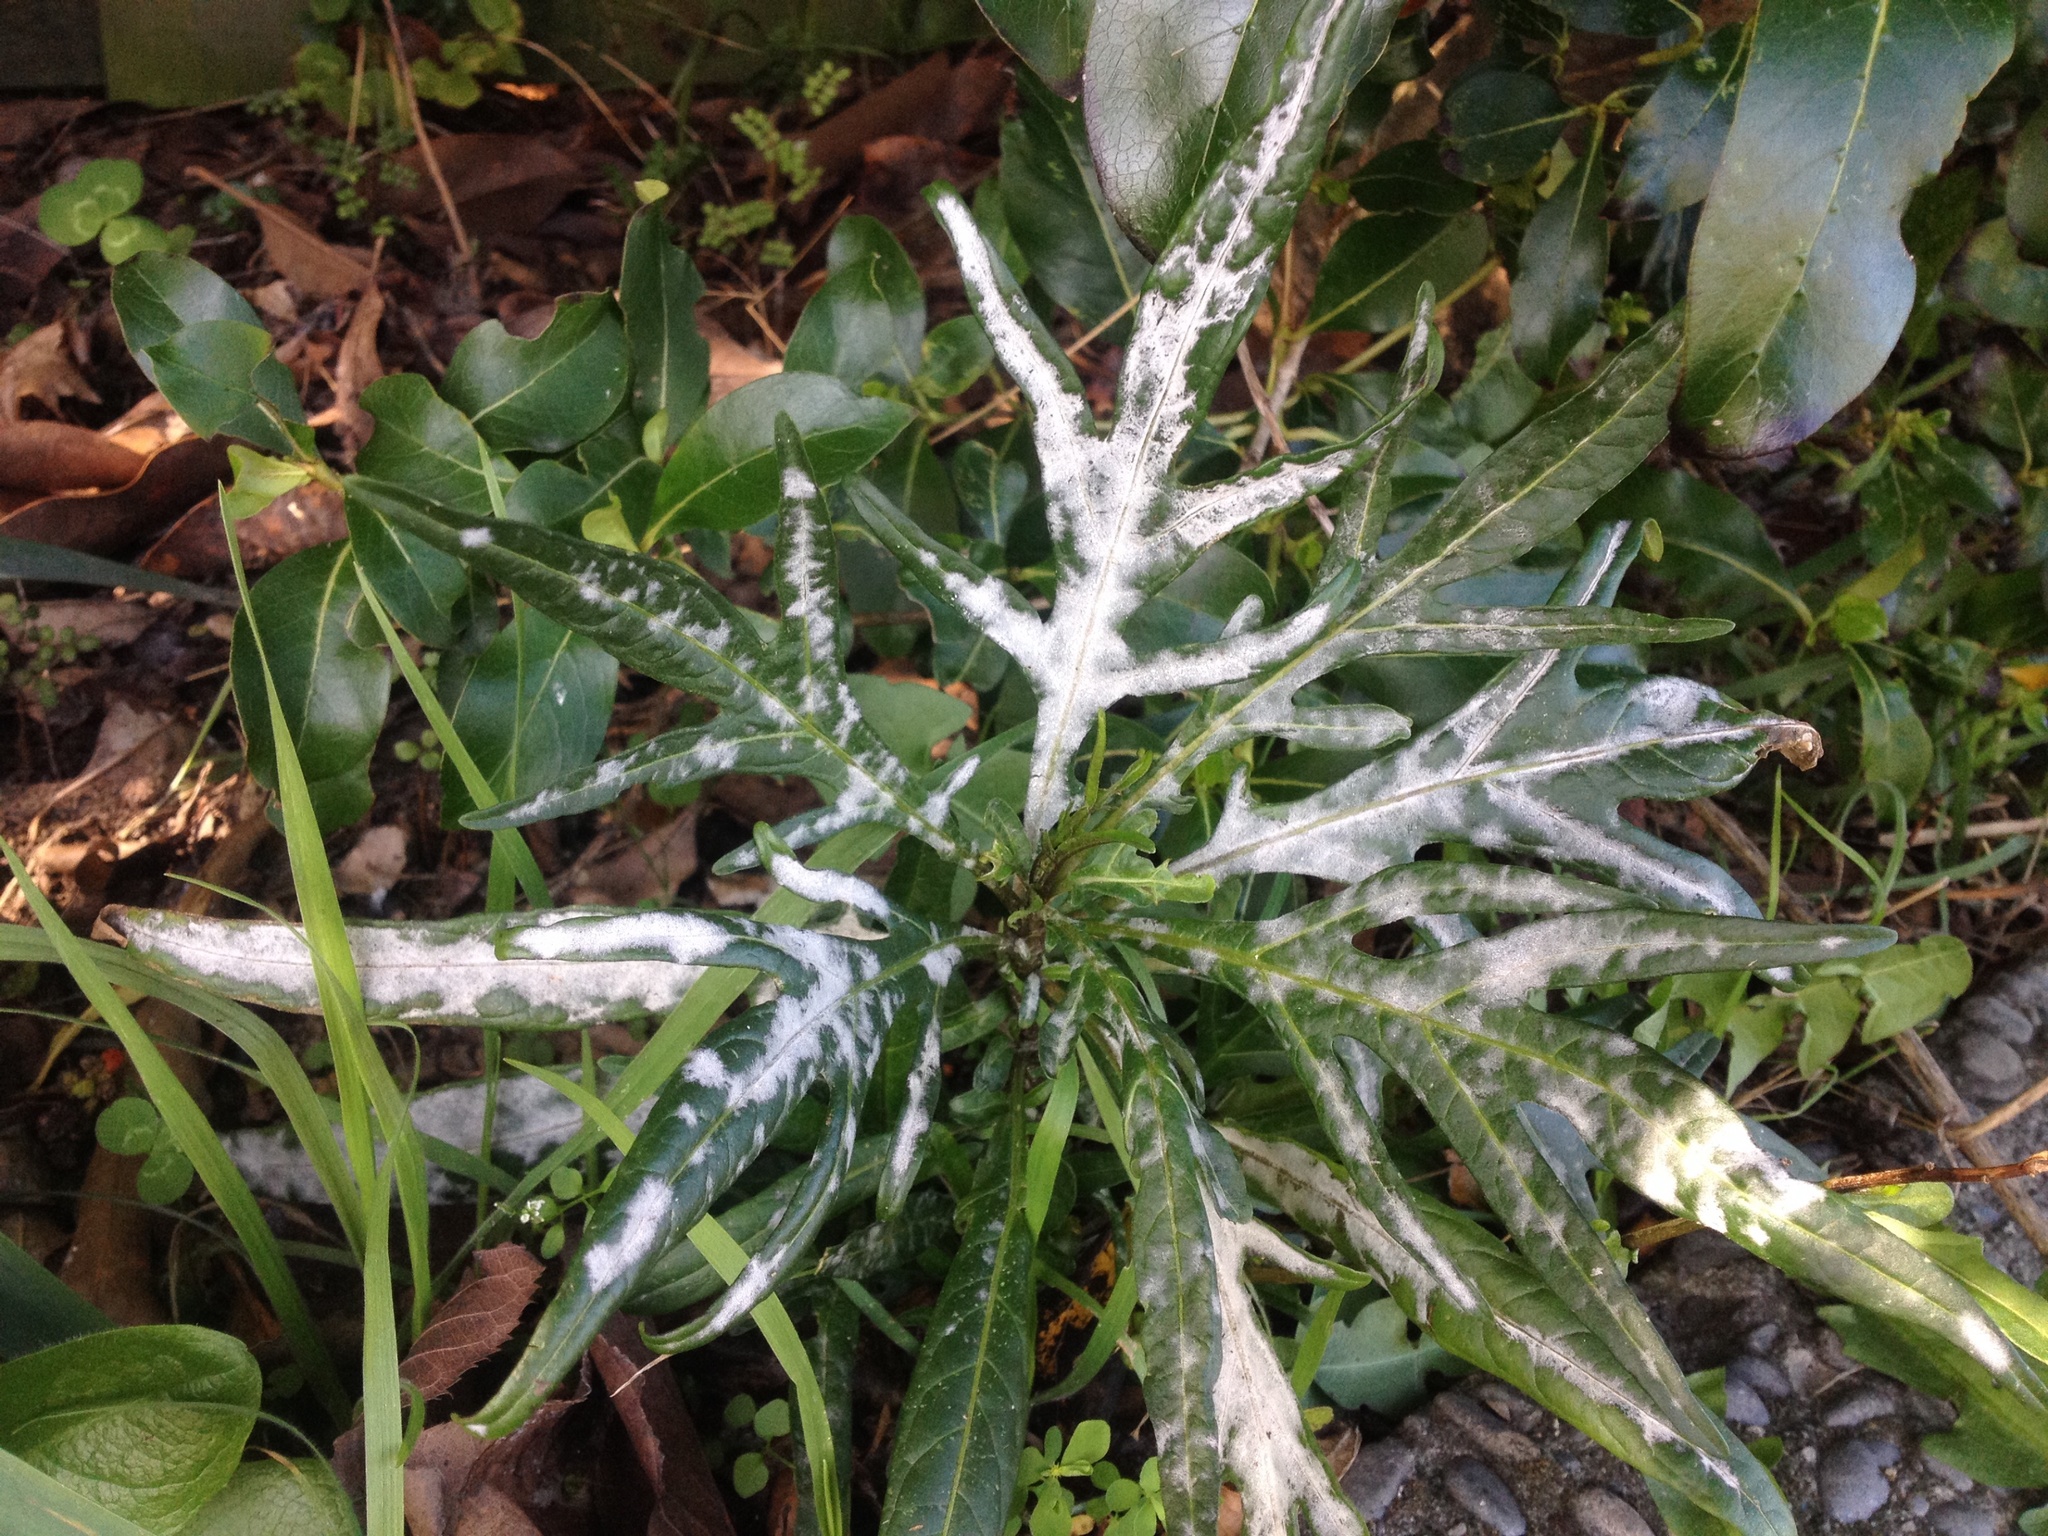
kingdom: Fungi
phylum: Ascomycota
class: Leotiomycetes
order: Helotiales
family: Erysiphaceae
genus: Golovinomyces
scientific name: Golovinomyces longipes
